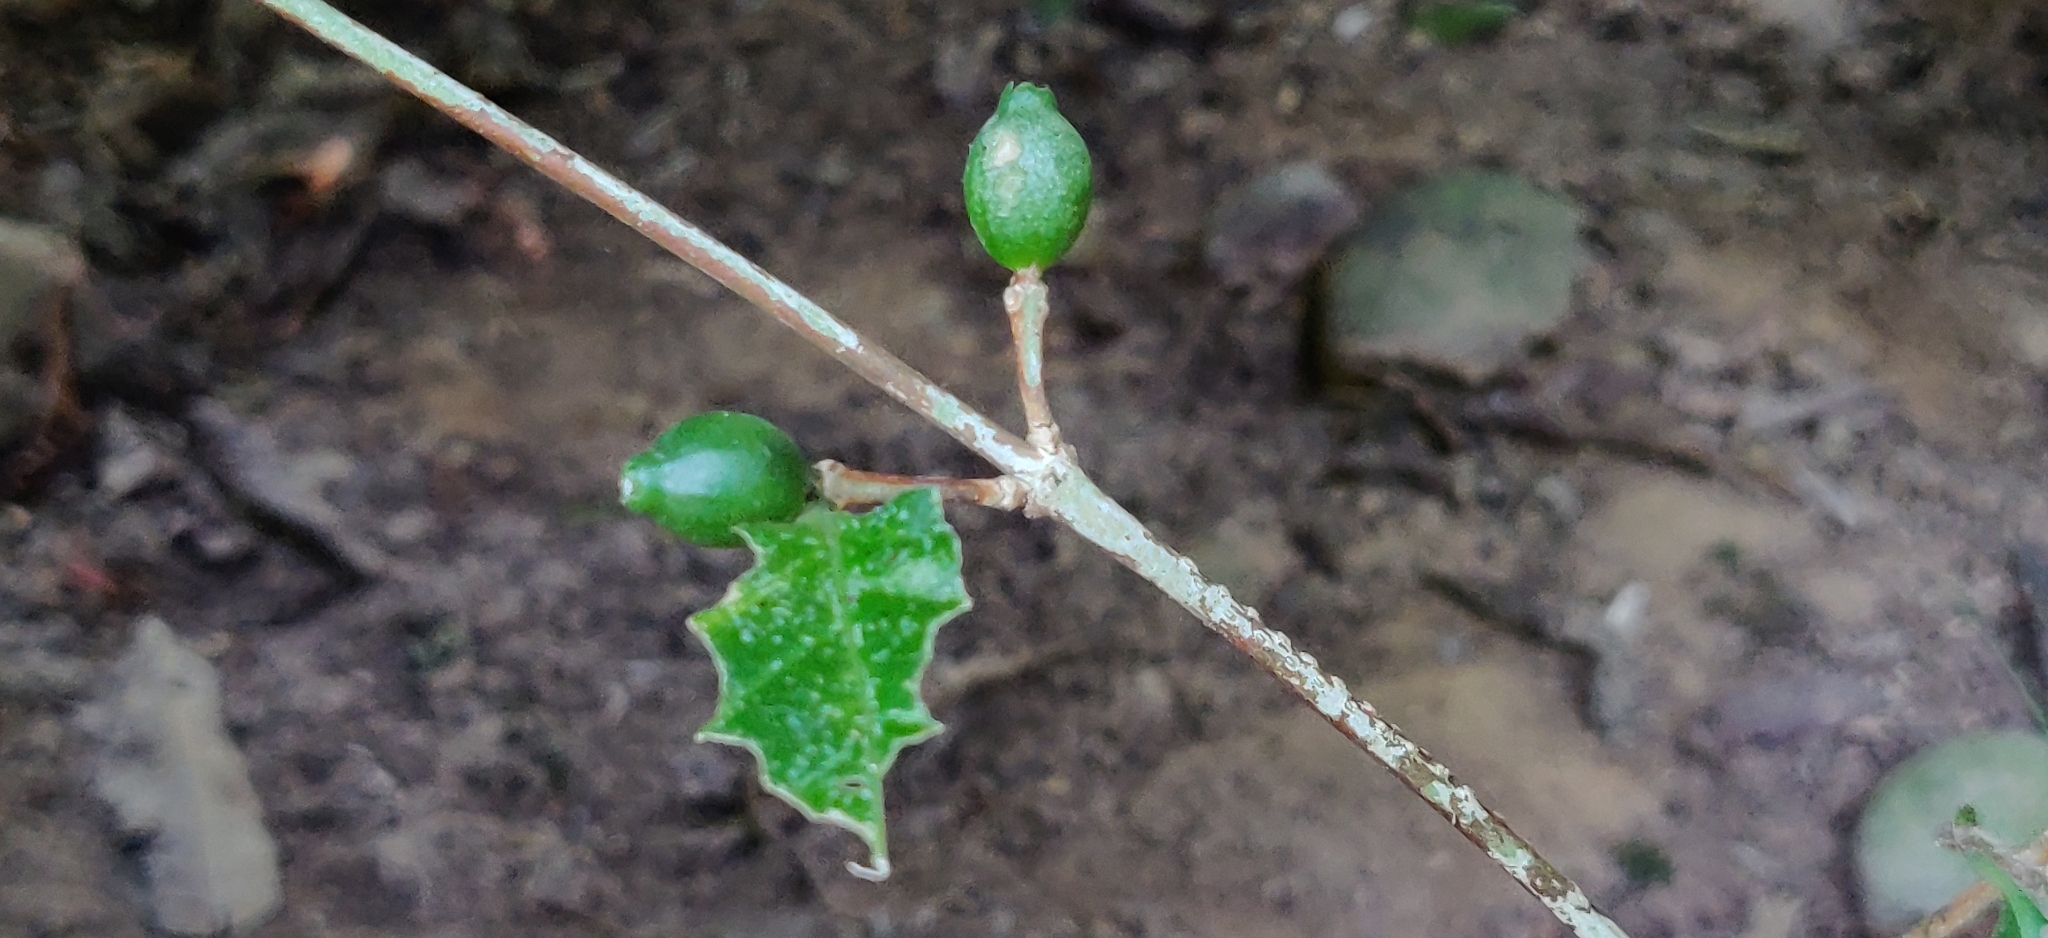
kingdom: Plantae
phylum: Tracheophyta
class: Magnoliopsida
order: Gentianales
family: Rubiaceae
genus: Coffea
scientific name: Coffea benghalensis
